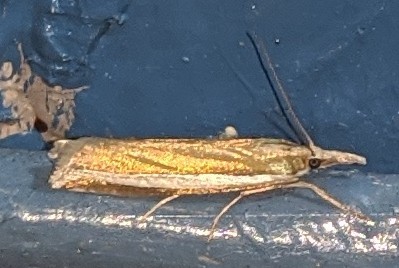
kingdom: Animalia
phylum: Arthropoda
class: Insecta
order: Lepidoptera
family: Crambidae
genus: Crambus
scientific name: Crambus unistriatellus
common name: Wide-stripe grass-veneer moth
